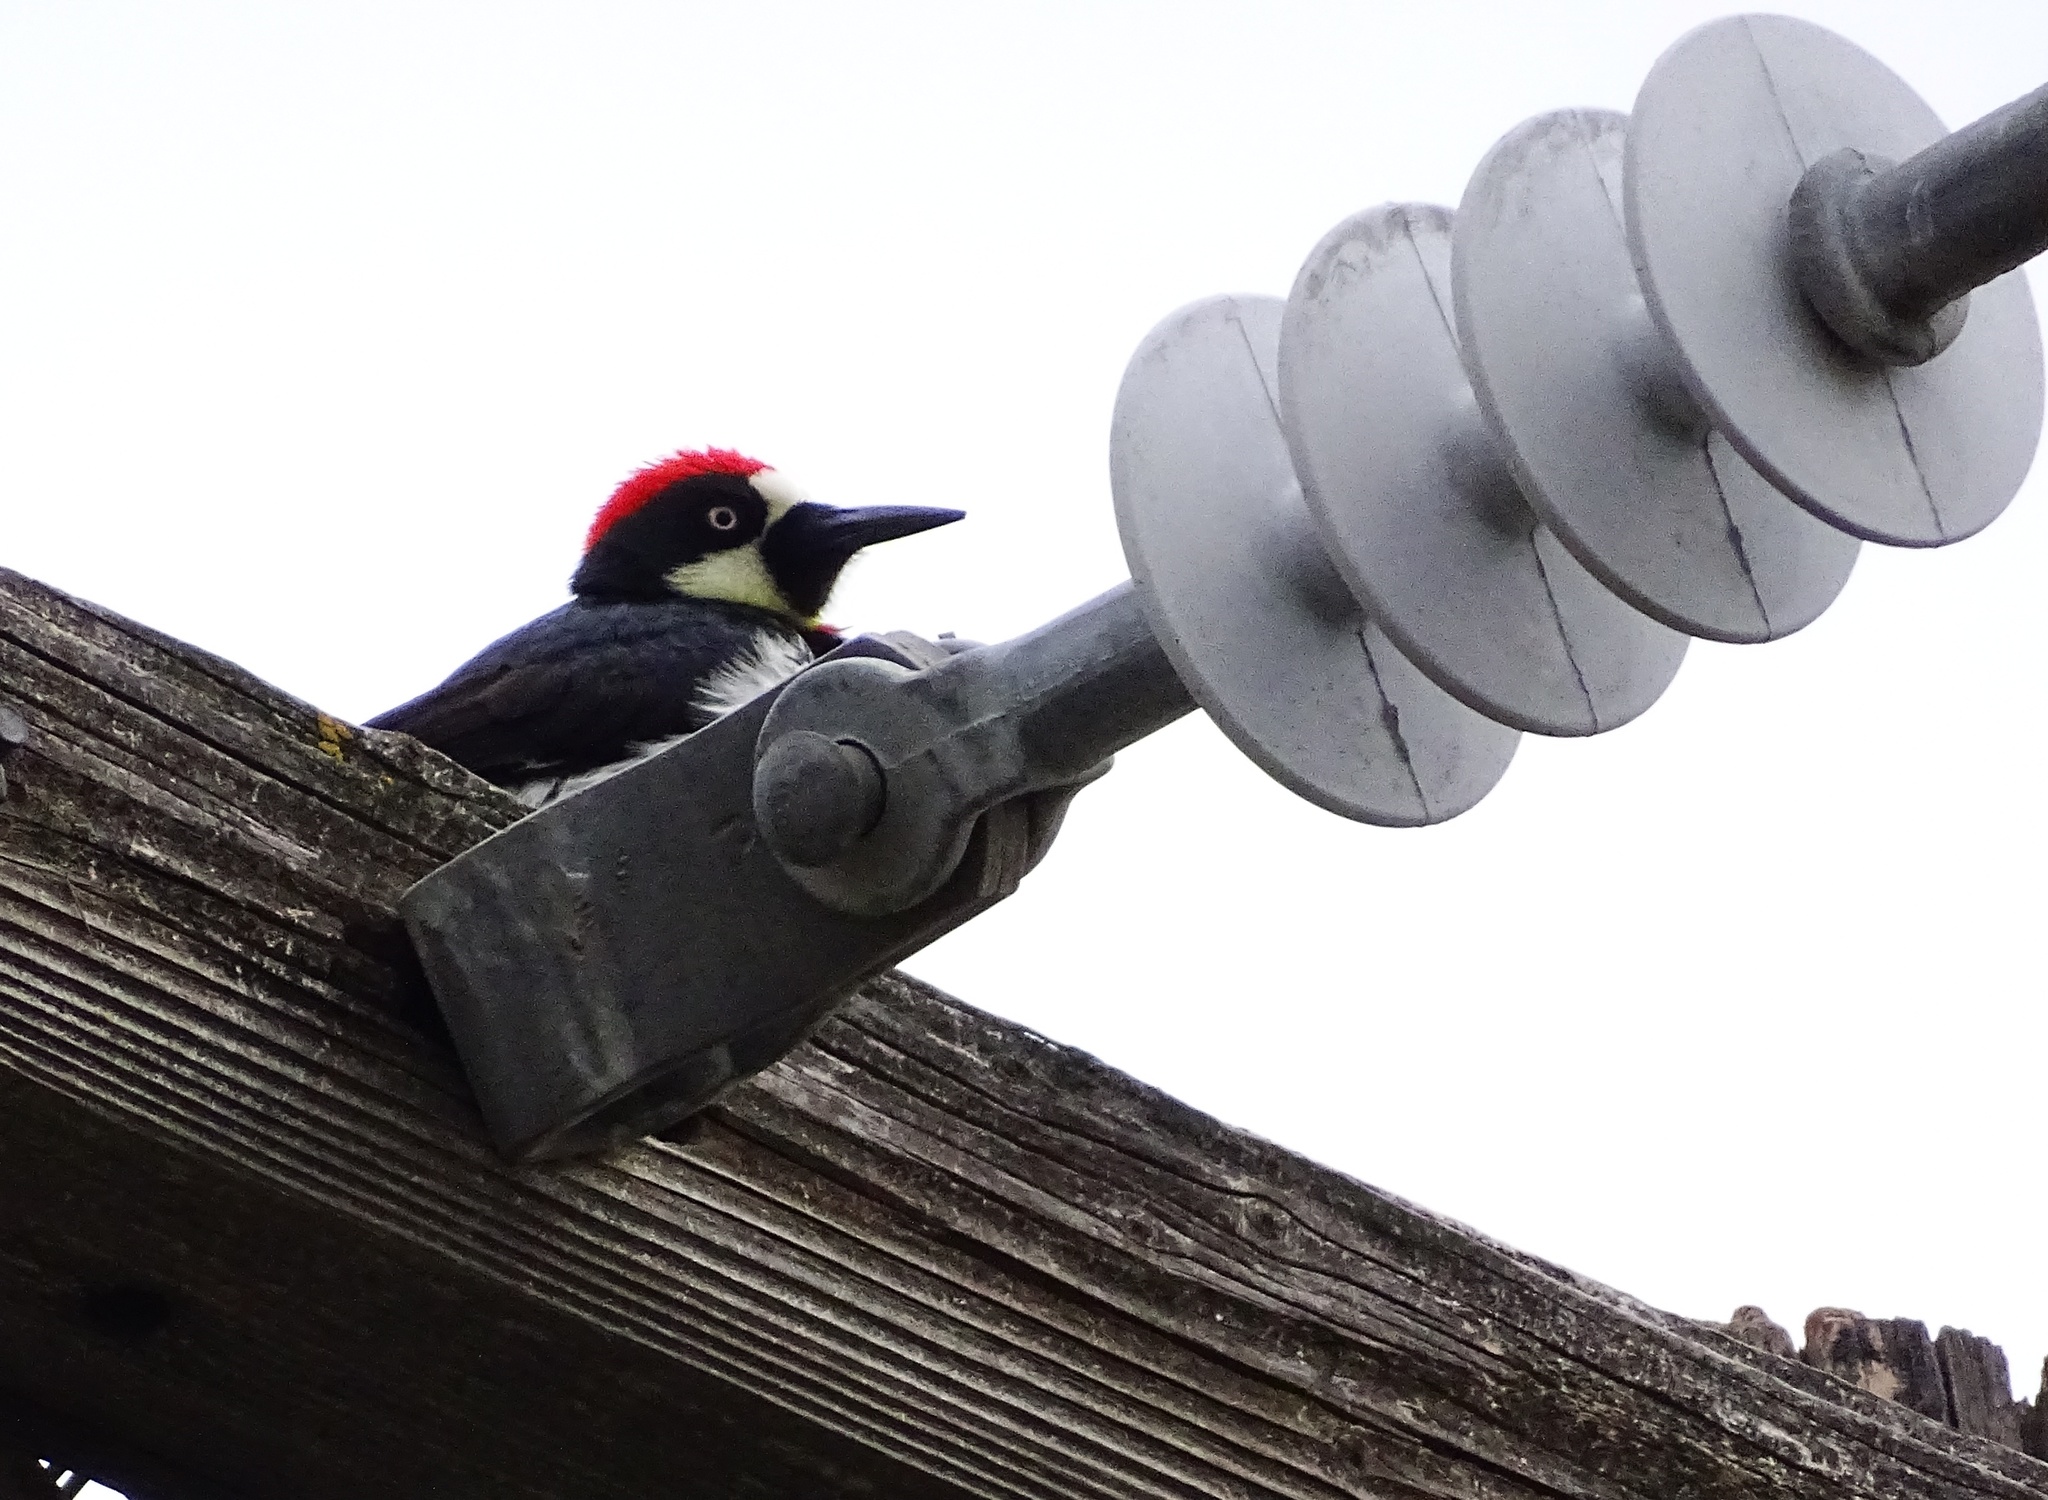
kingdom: Animalia
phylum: Chordata
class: Aves
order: Piciformes
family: Picidae
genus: Melanerpes
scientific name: Melanerpes formicivorus
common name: Acorn woodpecker
